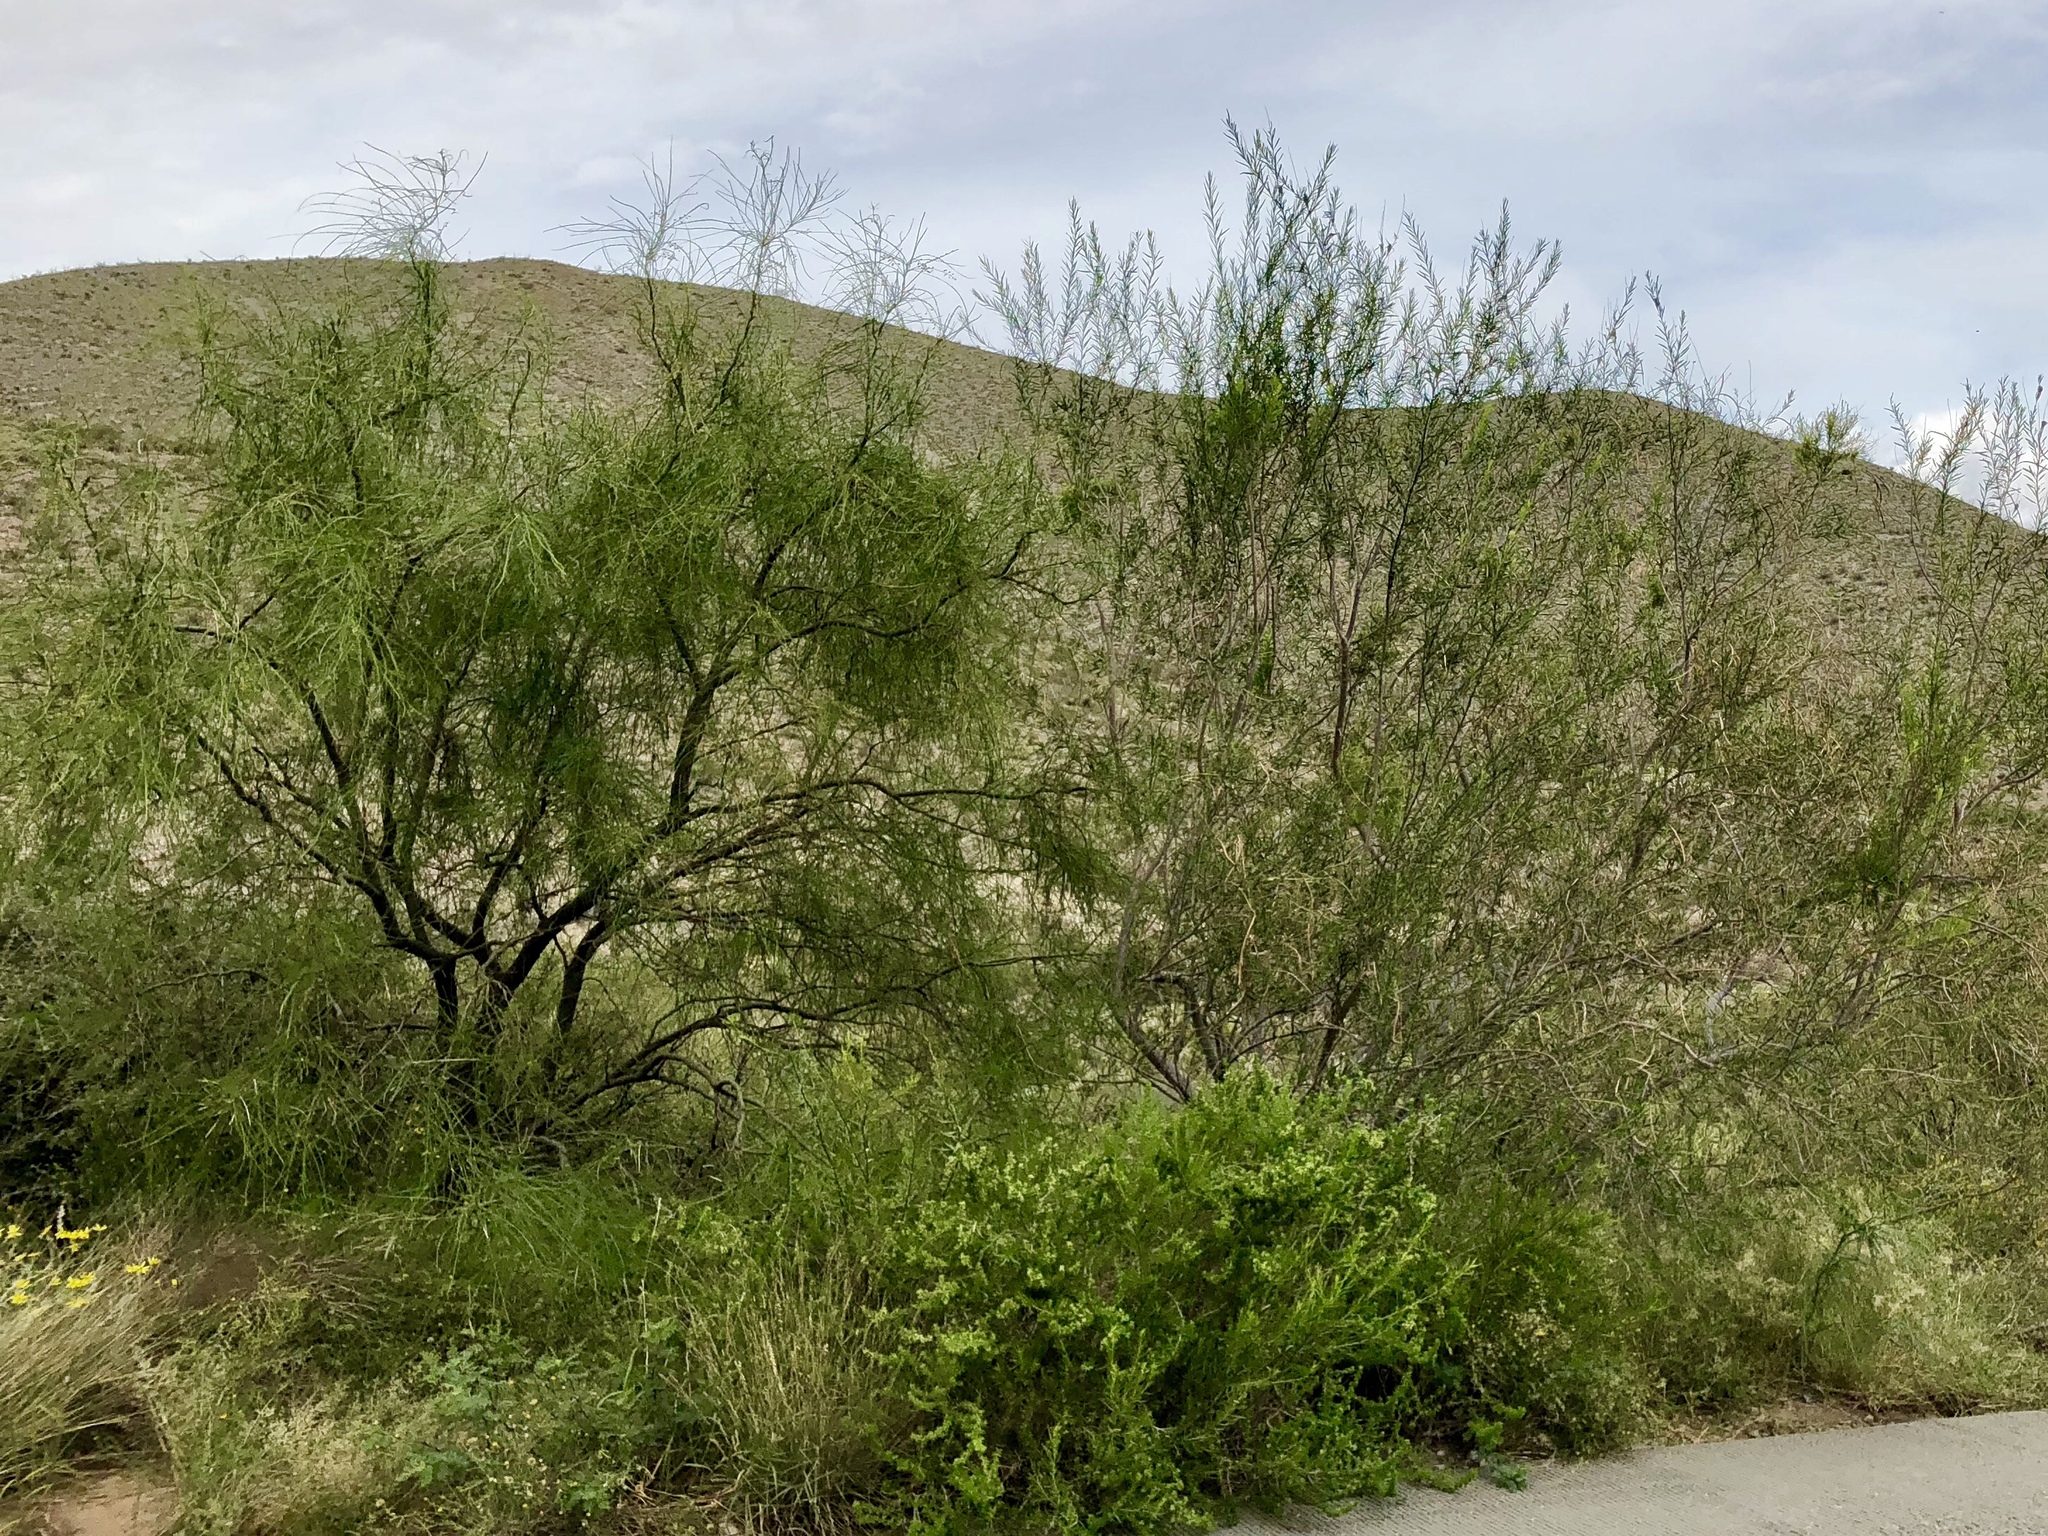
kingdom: Plantae
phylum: Tracheophyta
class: Magnoliopsida
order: Lamiales
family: Bignoniaceae
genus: Chilopsis
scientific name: Chilopsis linearis
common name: Desert-willow
